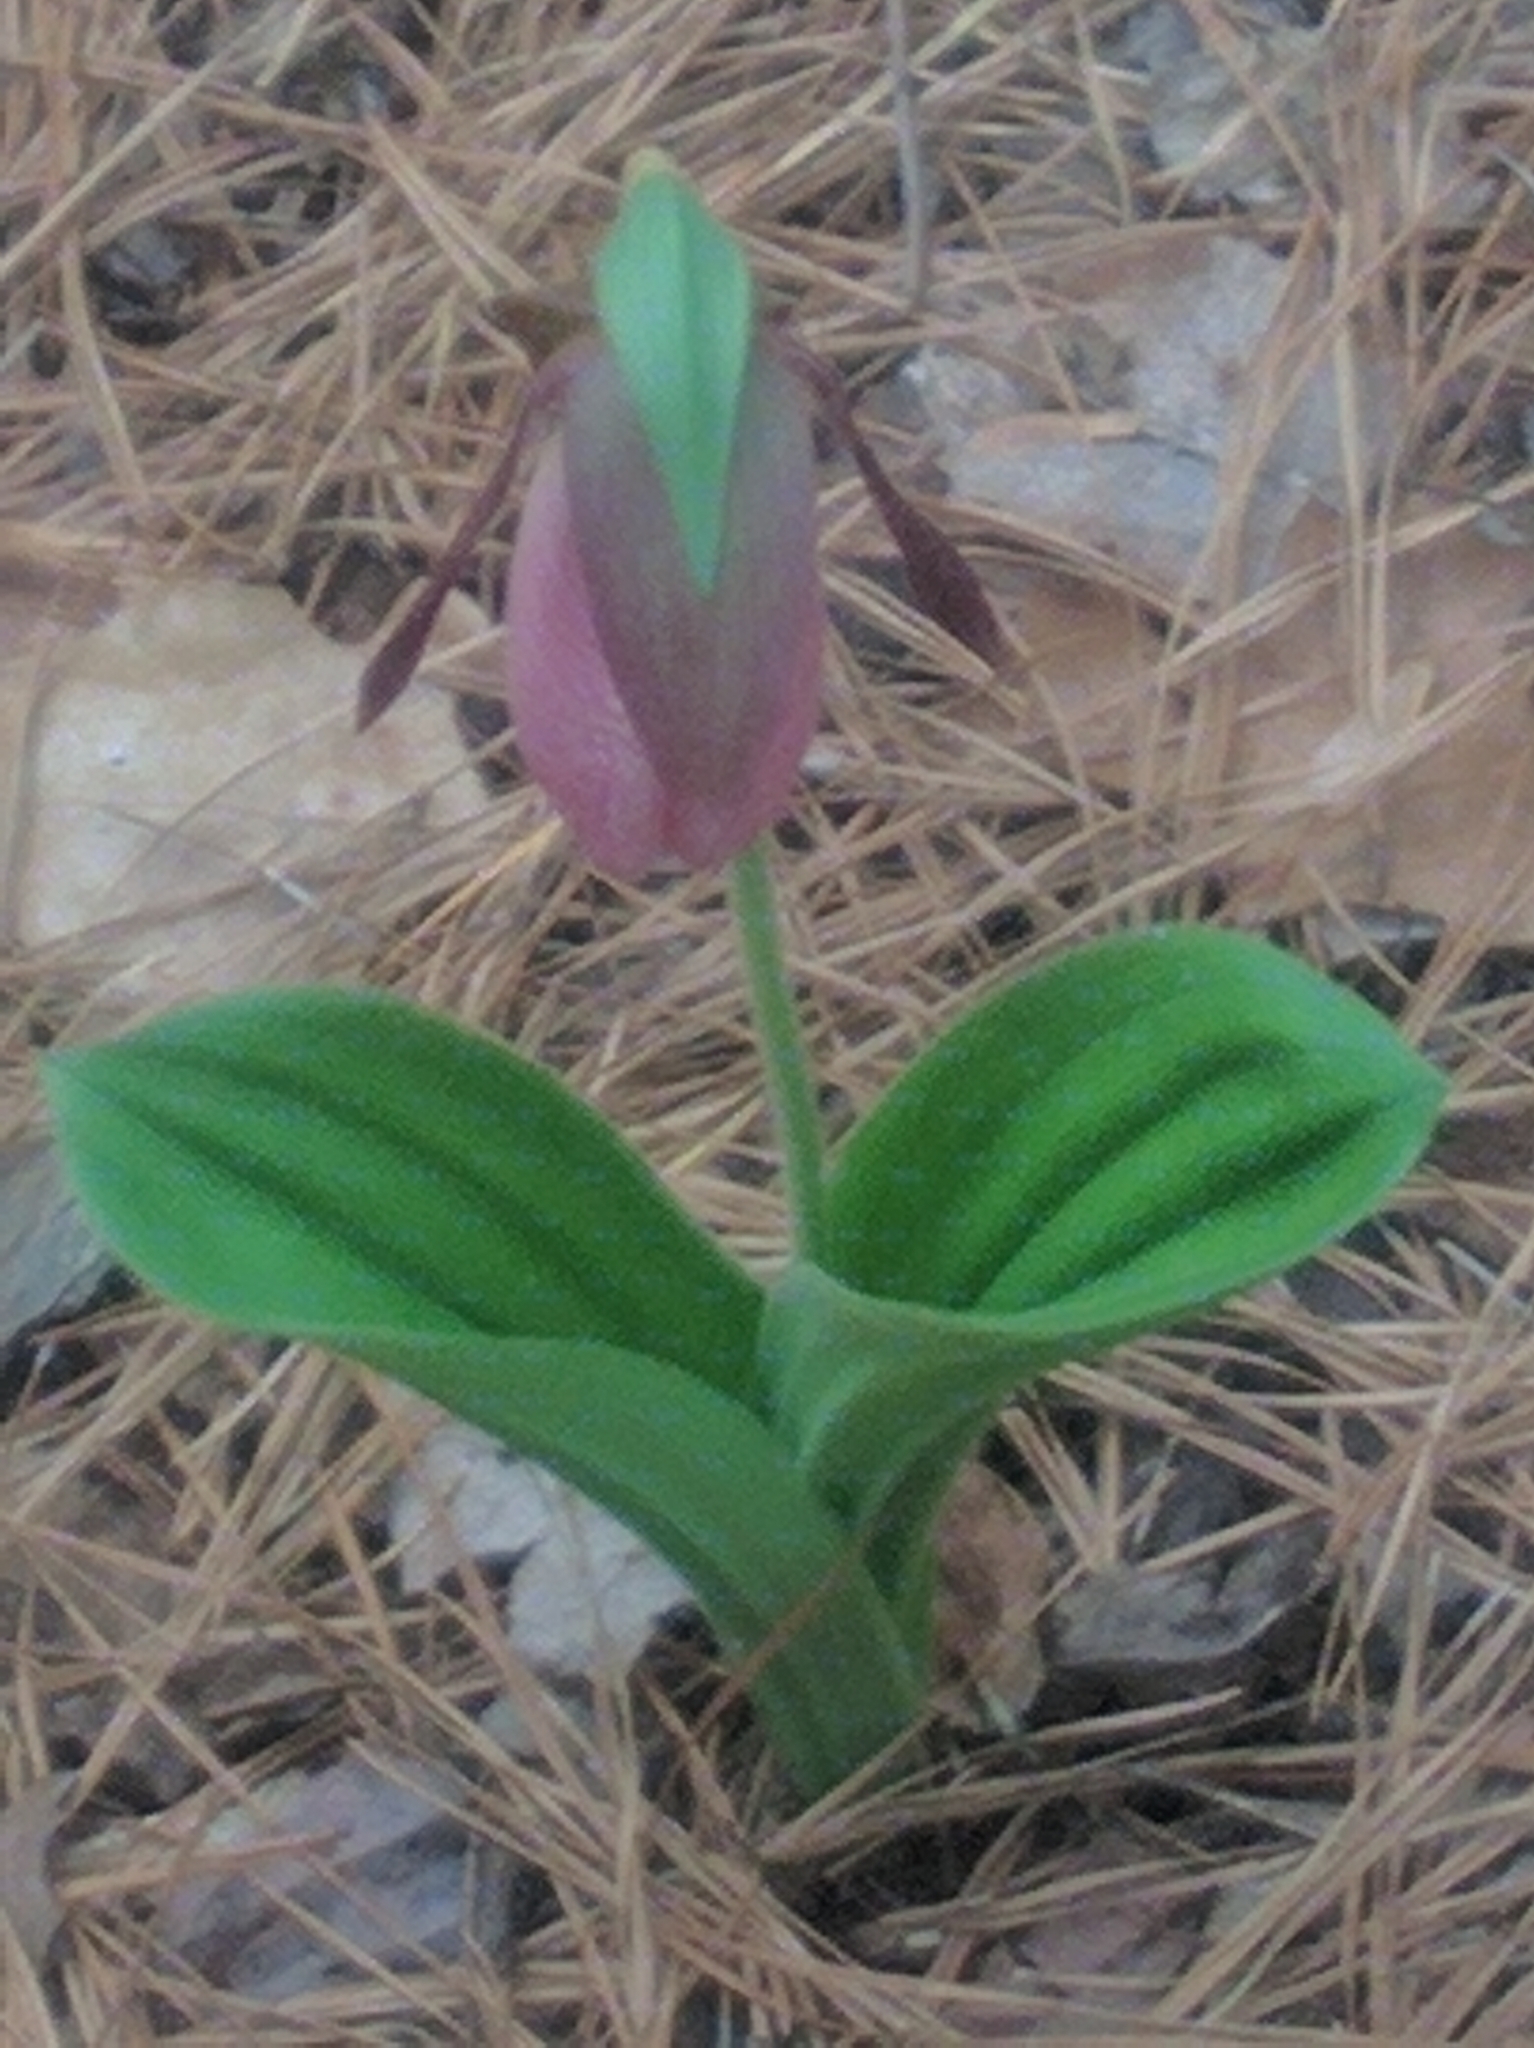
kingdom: Plantae
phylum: Tracheophyta
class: Liliopsida
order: Asparagales
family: Orchidaceae
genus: Cypripedium
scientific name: Cypripedium acaule
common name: Pink lady's-slipper
